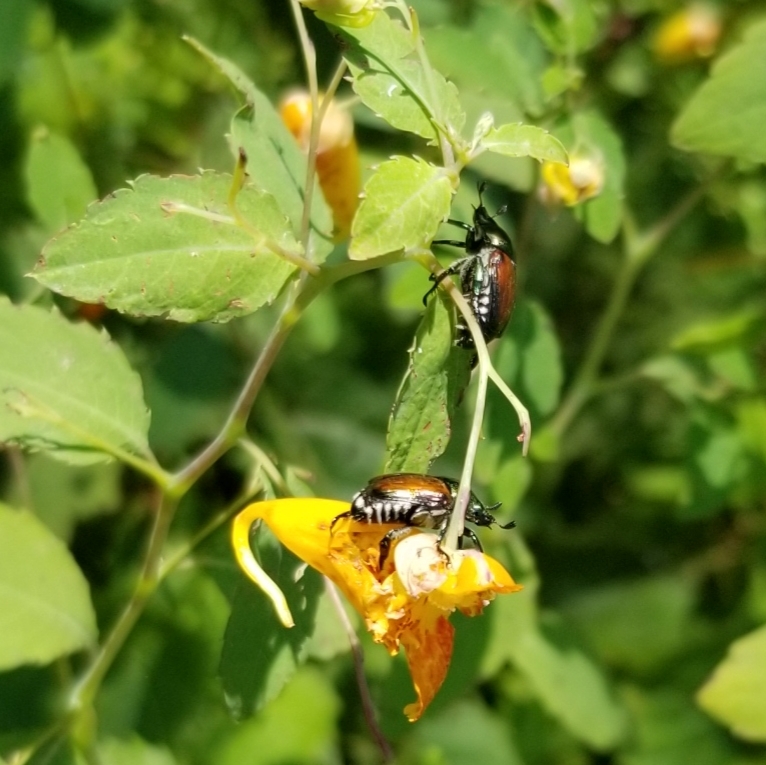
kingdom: Animalia
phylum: Arthropoda
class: Insecta
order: Coleoptera
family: Scarabaeidae
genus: Popillia
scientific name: Popillia japonica
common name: Japanese beetle
